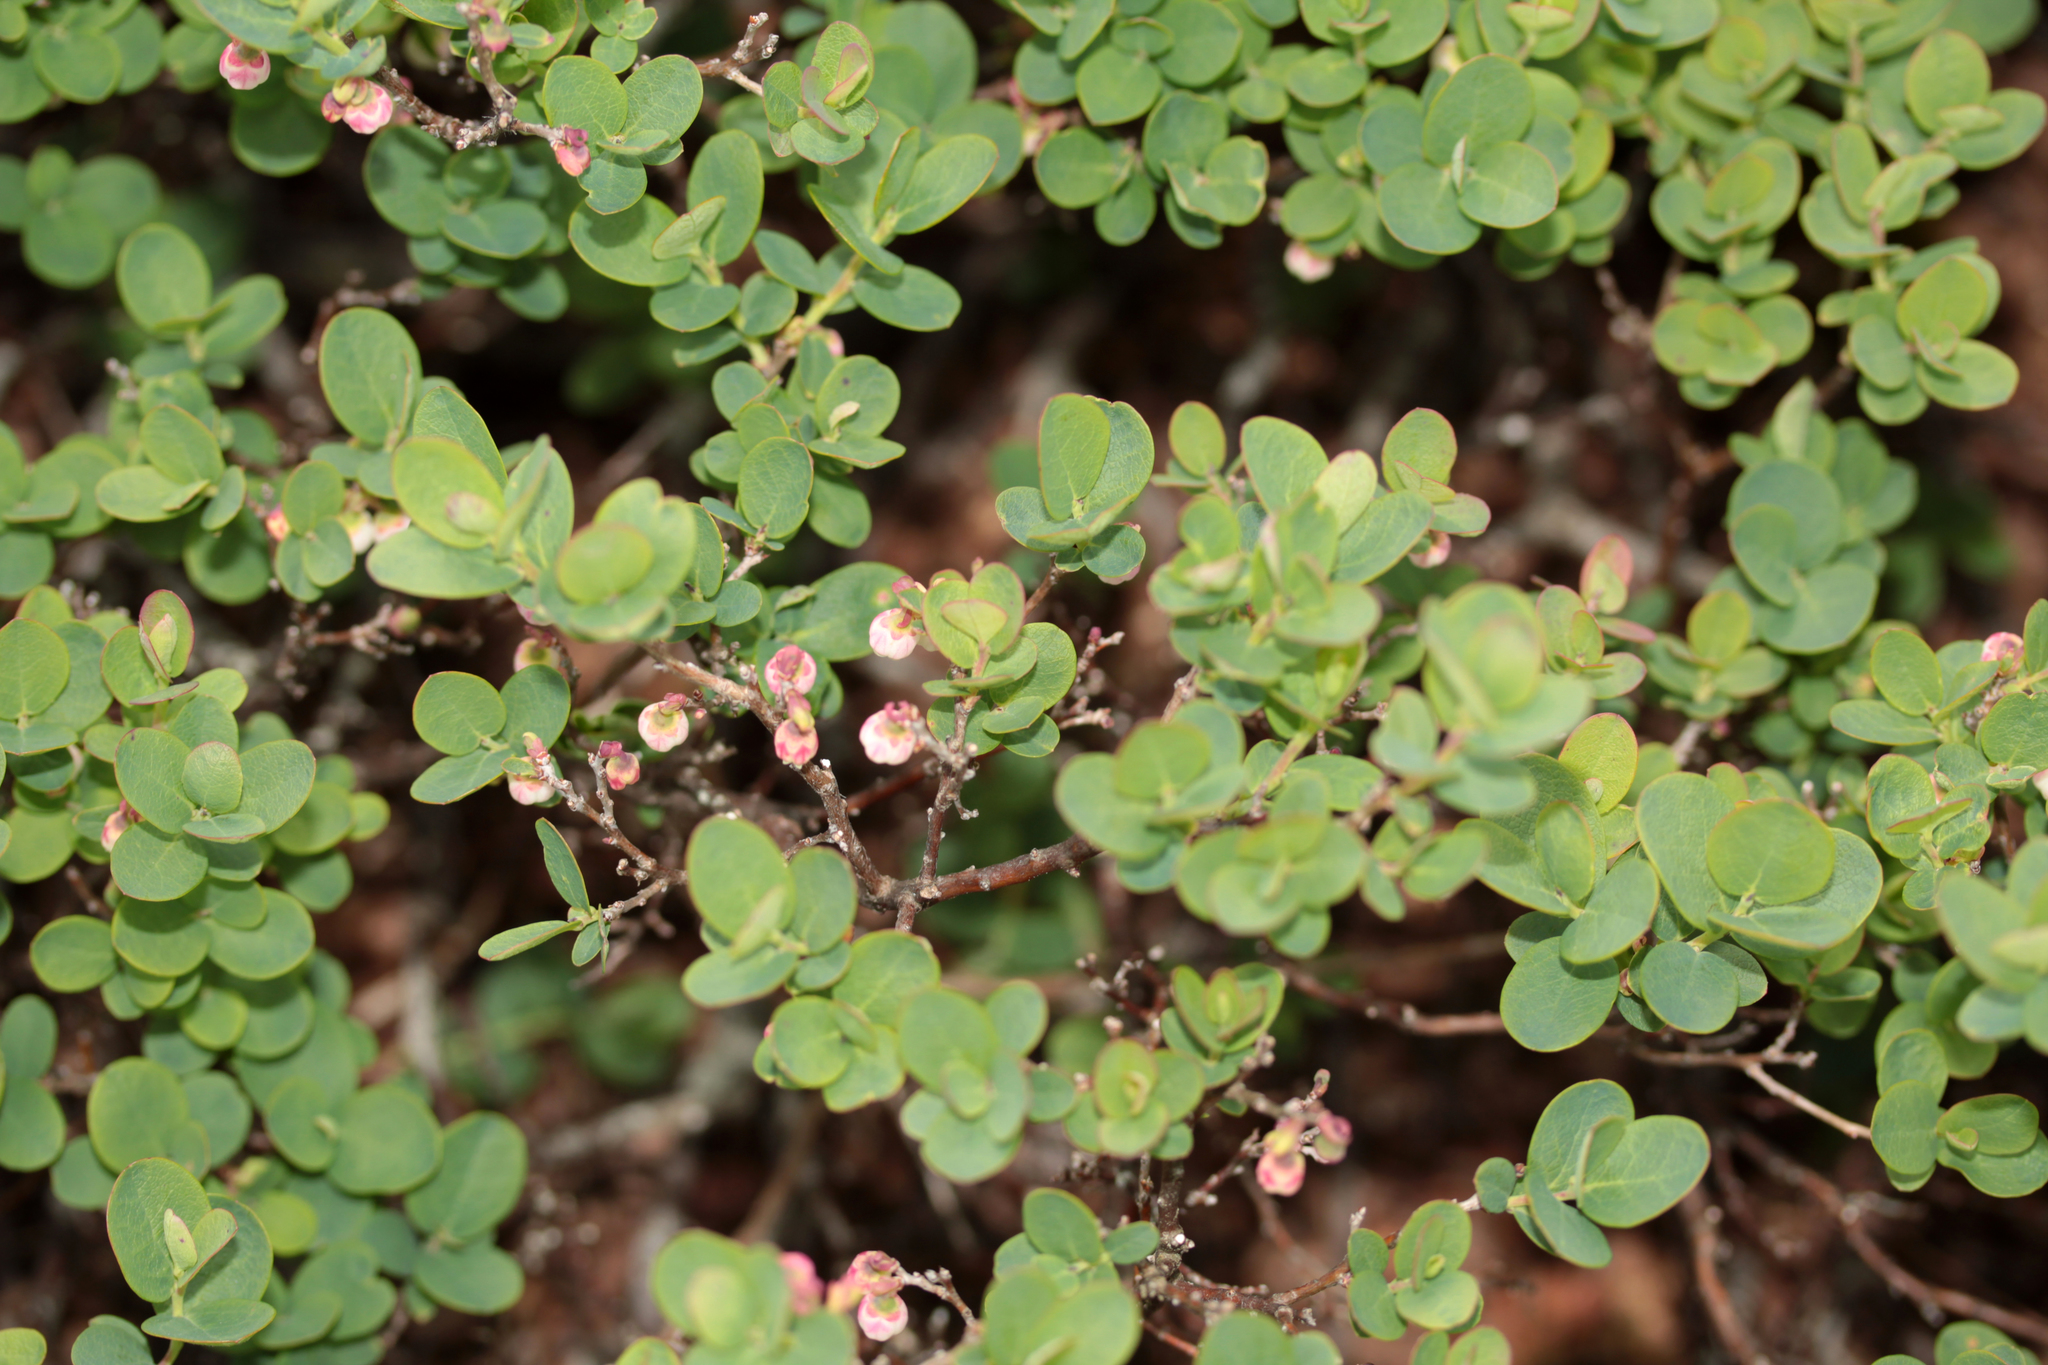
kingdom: Plantae
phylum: Tracheophyta
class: Magnoliopsida
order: Ericales
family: Ericaceae
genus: Vaccinium
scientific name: Vaccinium uliginosum
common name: Bog bilberry
